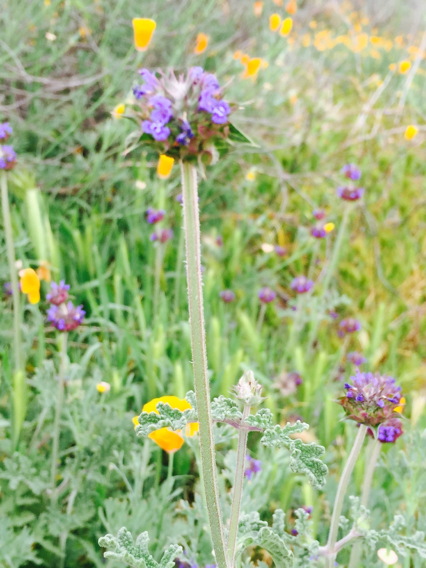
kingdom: Plantae
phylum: Tracheophyta
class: Magnoliopsida
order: Lamiales
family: Lamiaceae
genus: Salvia
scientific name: Salvia columbariae
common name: Chia
